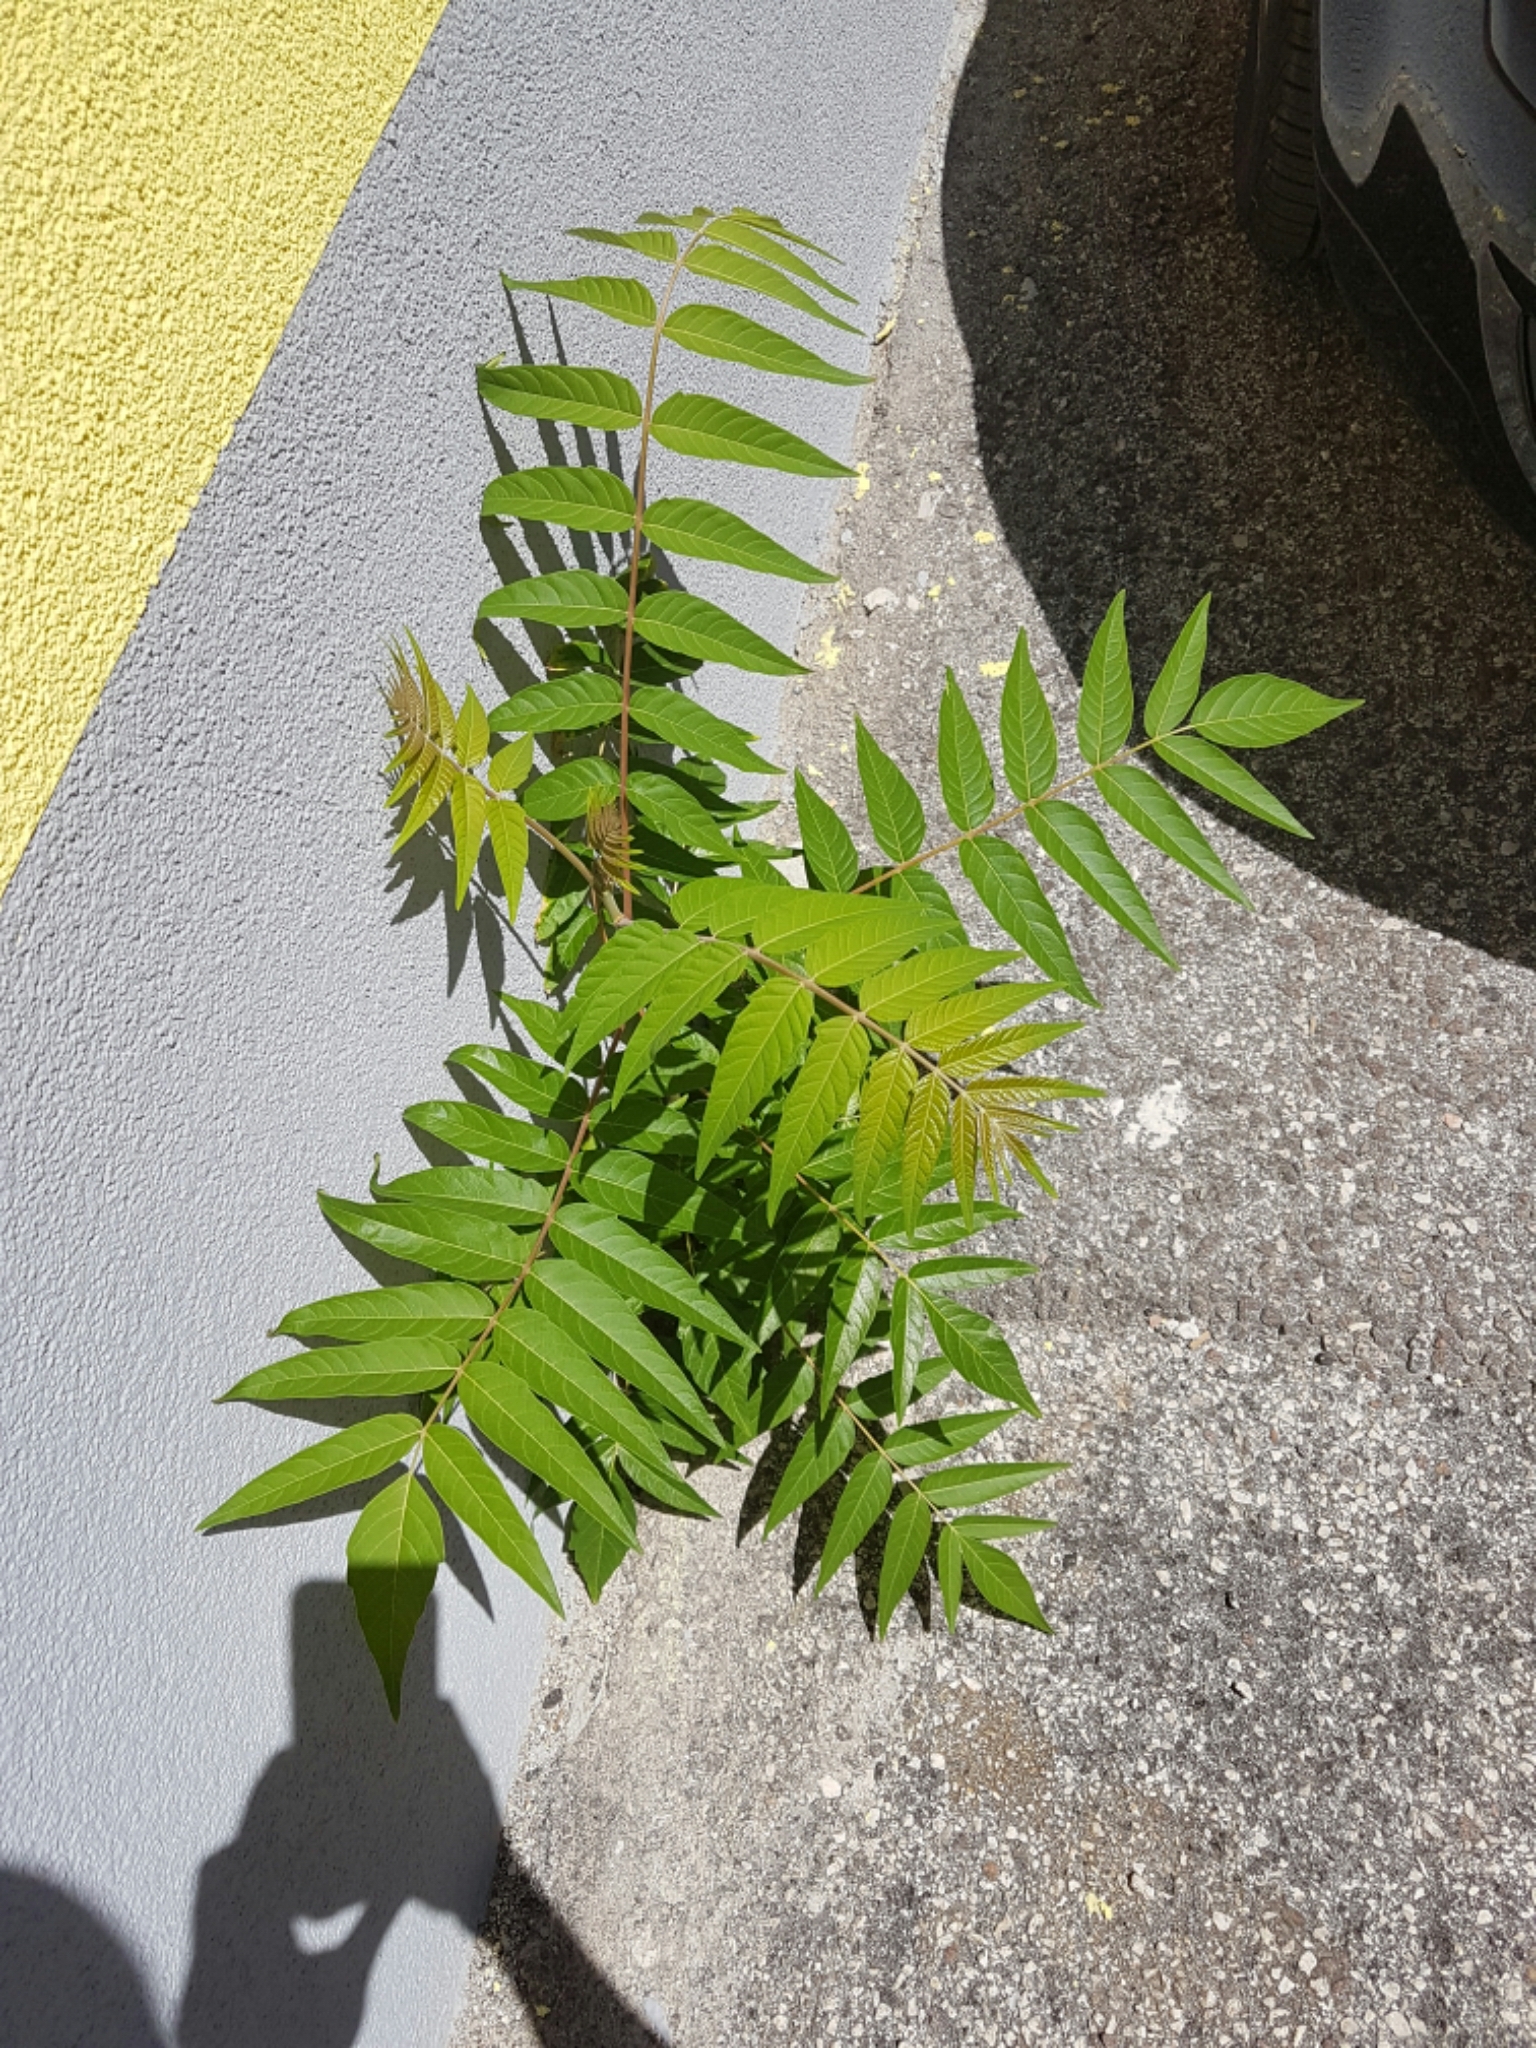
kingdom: Plantae
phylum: Tracheophyta
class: Magnoliopsida
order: Sapindales
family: Simaroubaceae
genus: Ailanthus
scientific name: Ailanthus altissima
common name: Tree-of-heaven
